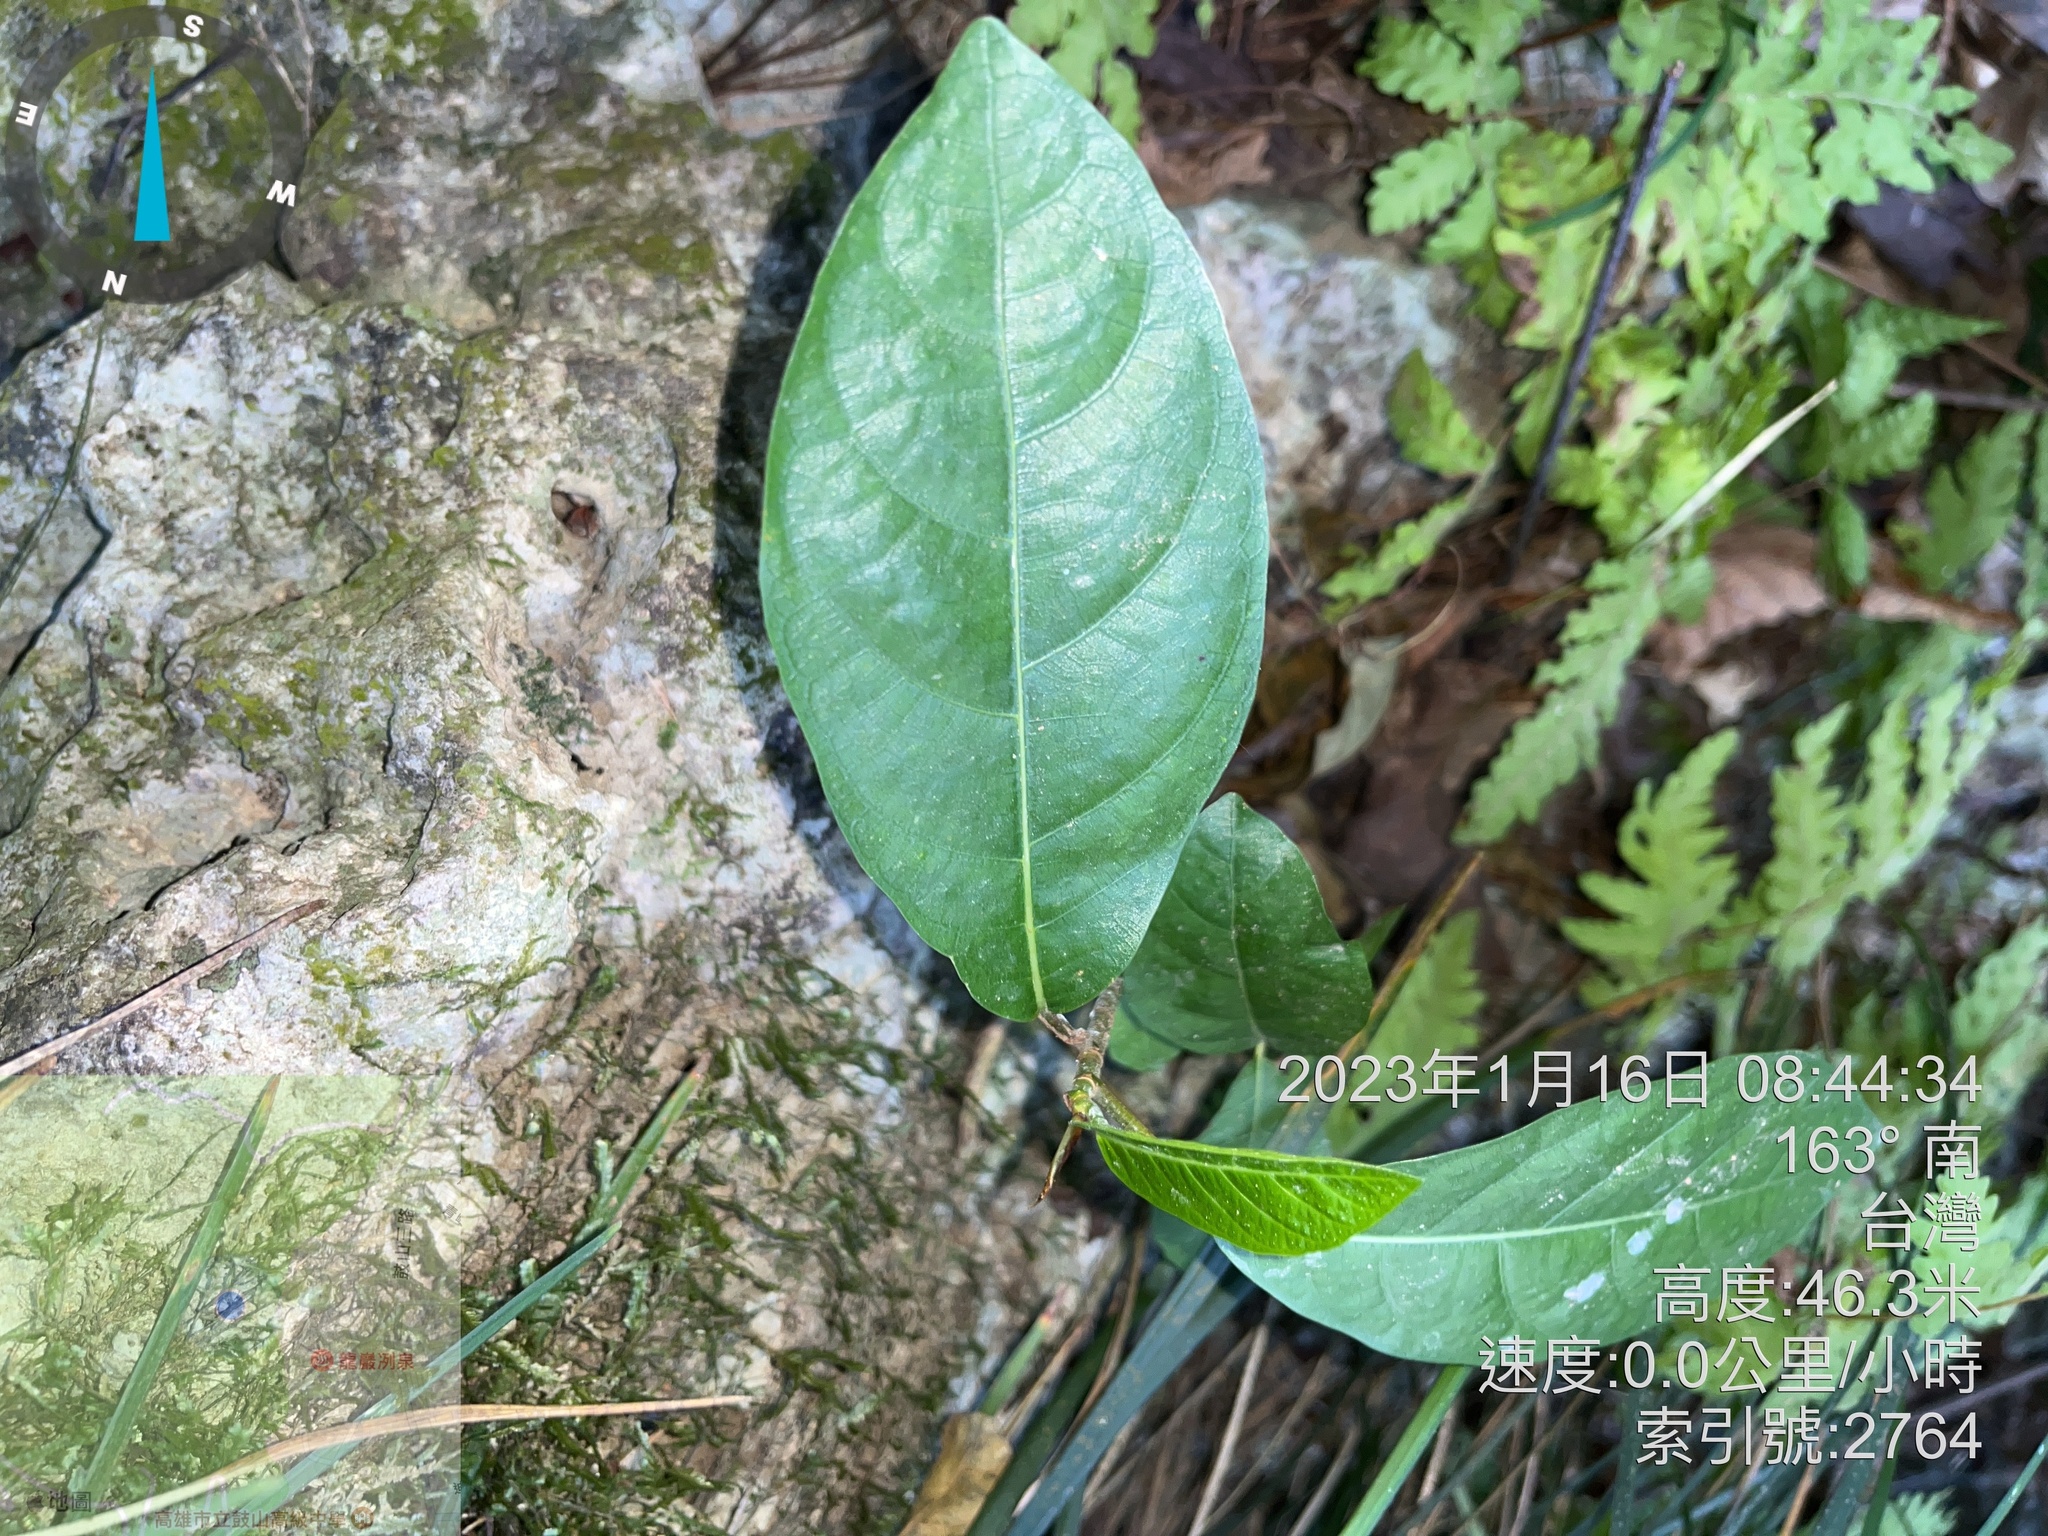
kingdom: Plantae
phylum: Tracheophyta
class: Magnoliopsida
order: Boraginales
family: Ehretiaceae
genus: Ehretia
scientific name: Ehretia acuminata
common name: Kodo wood
